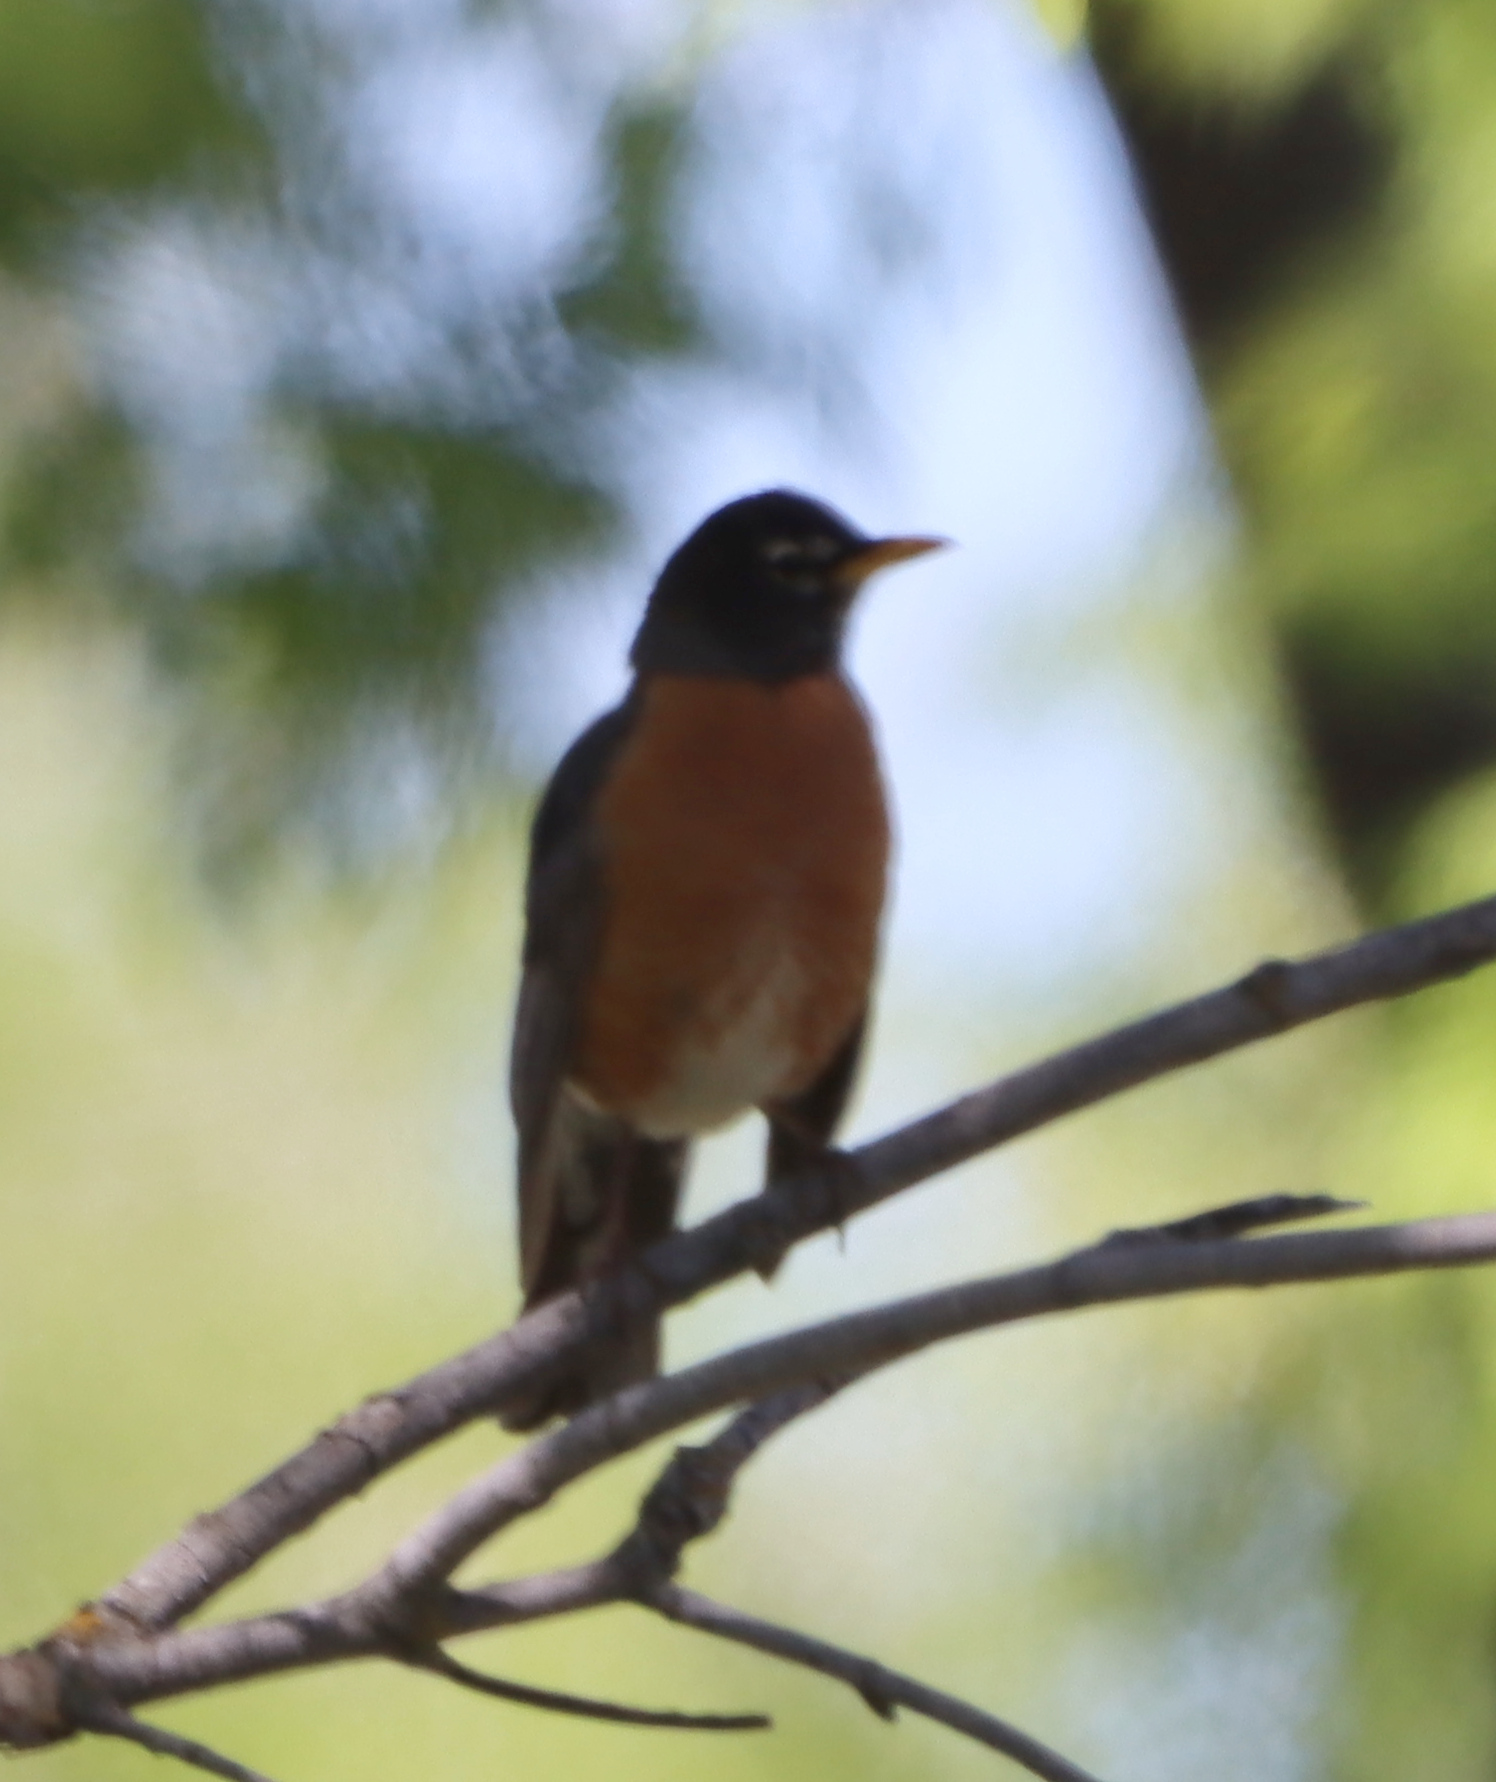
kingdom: Animalia
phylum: Chordata
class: Aves
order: Passeriformes
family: Turdidae
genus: Turdus
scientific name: Turdus migratorius
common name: American robin
